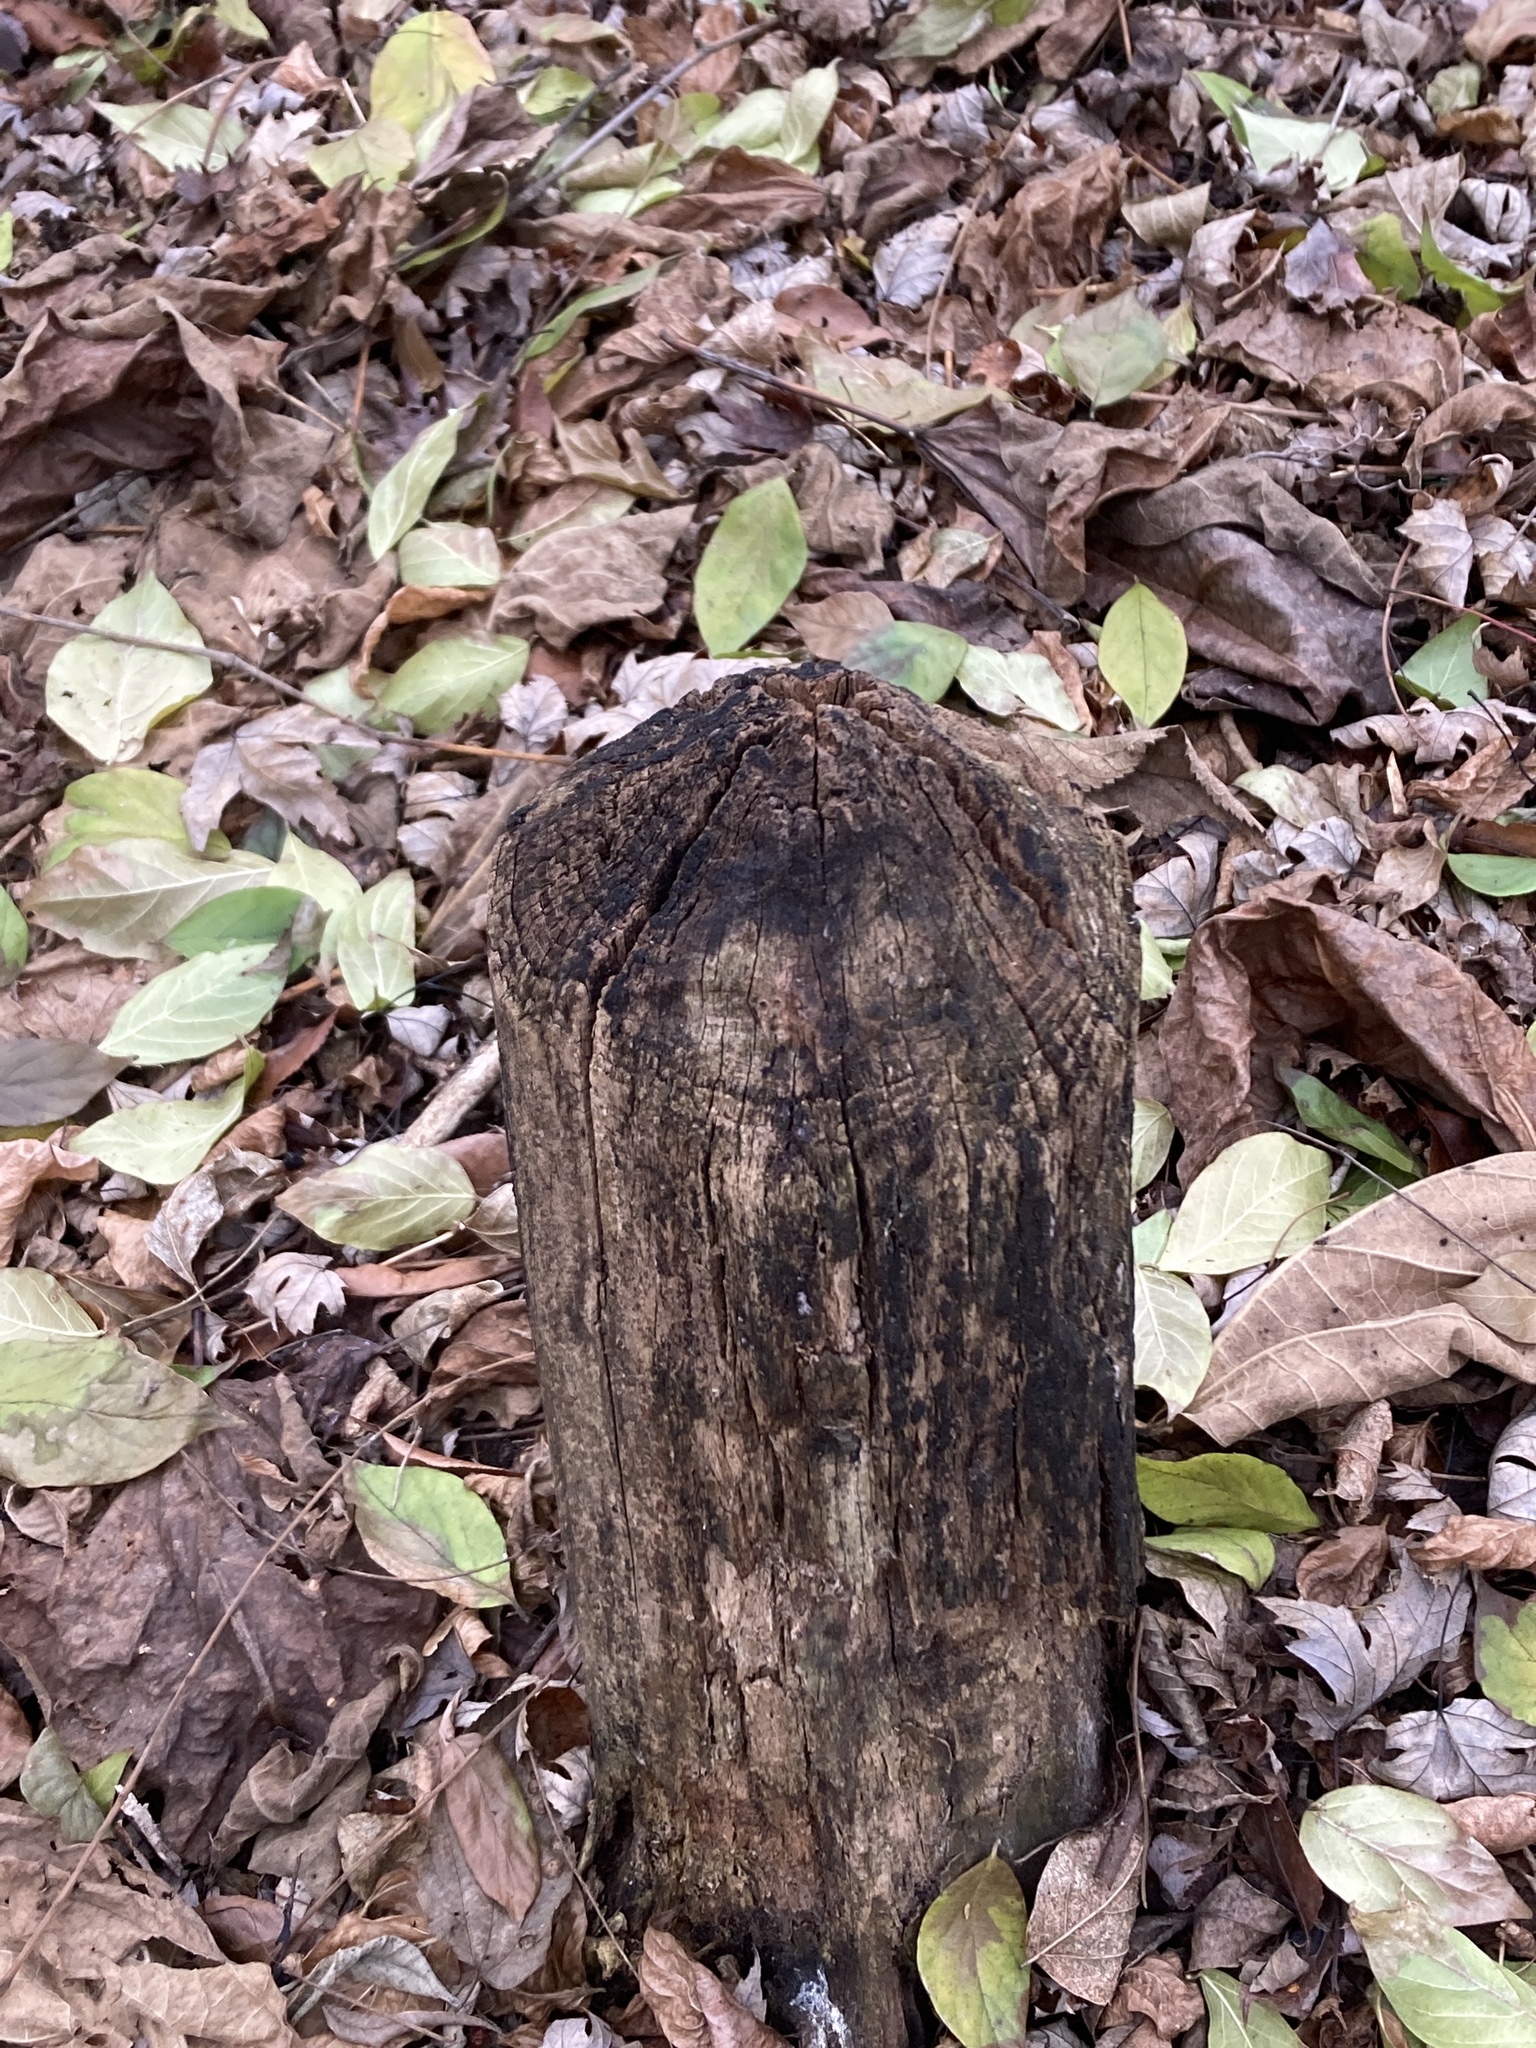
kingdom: Animalia
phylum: Chordata
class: Mammalia
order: Rodentia
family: Castoridae
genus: Castor
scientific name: Castor canadensis
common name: American beaver
